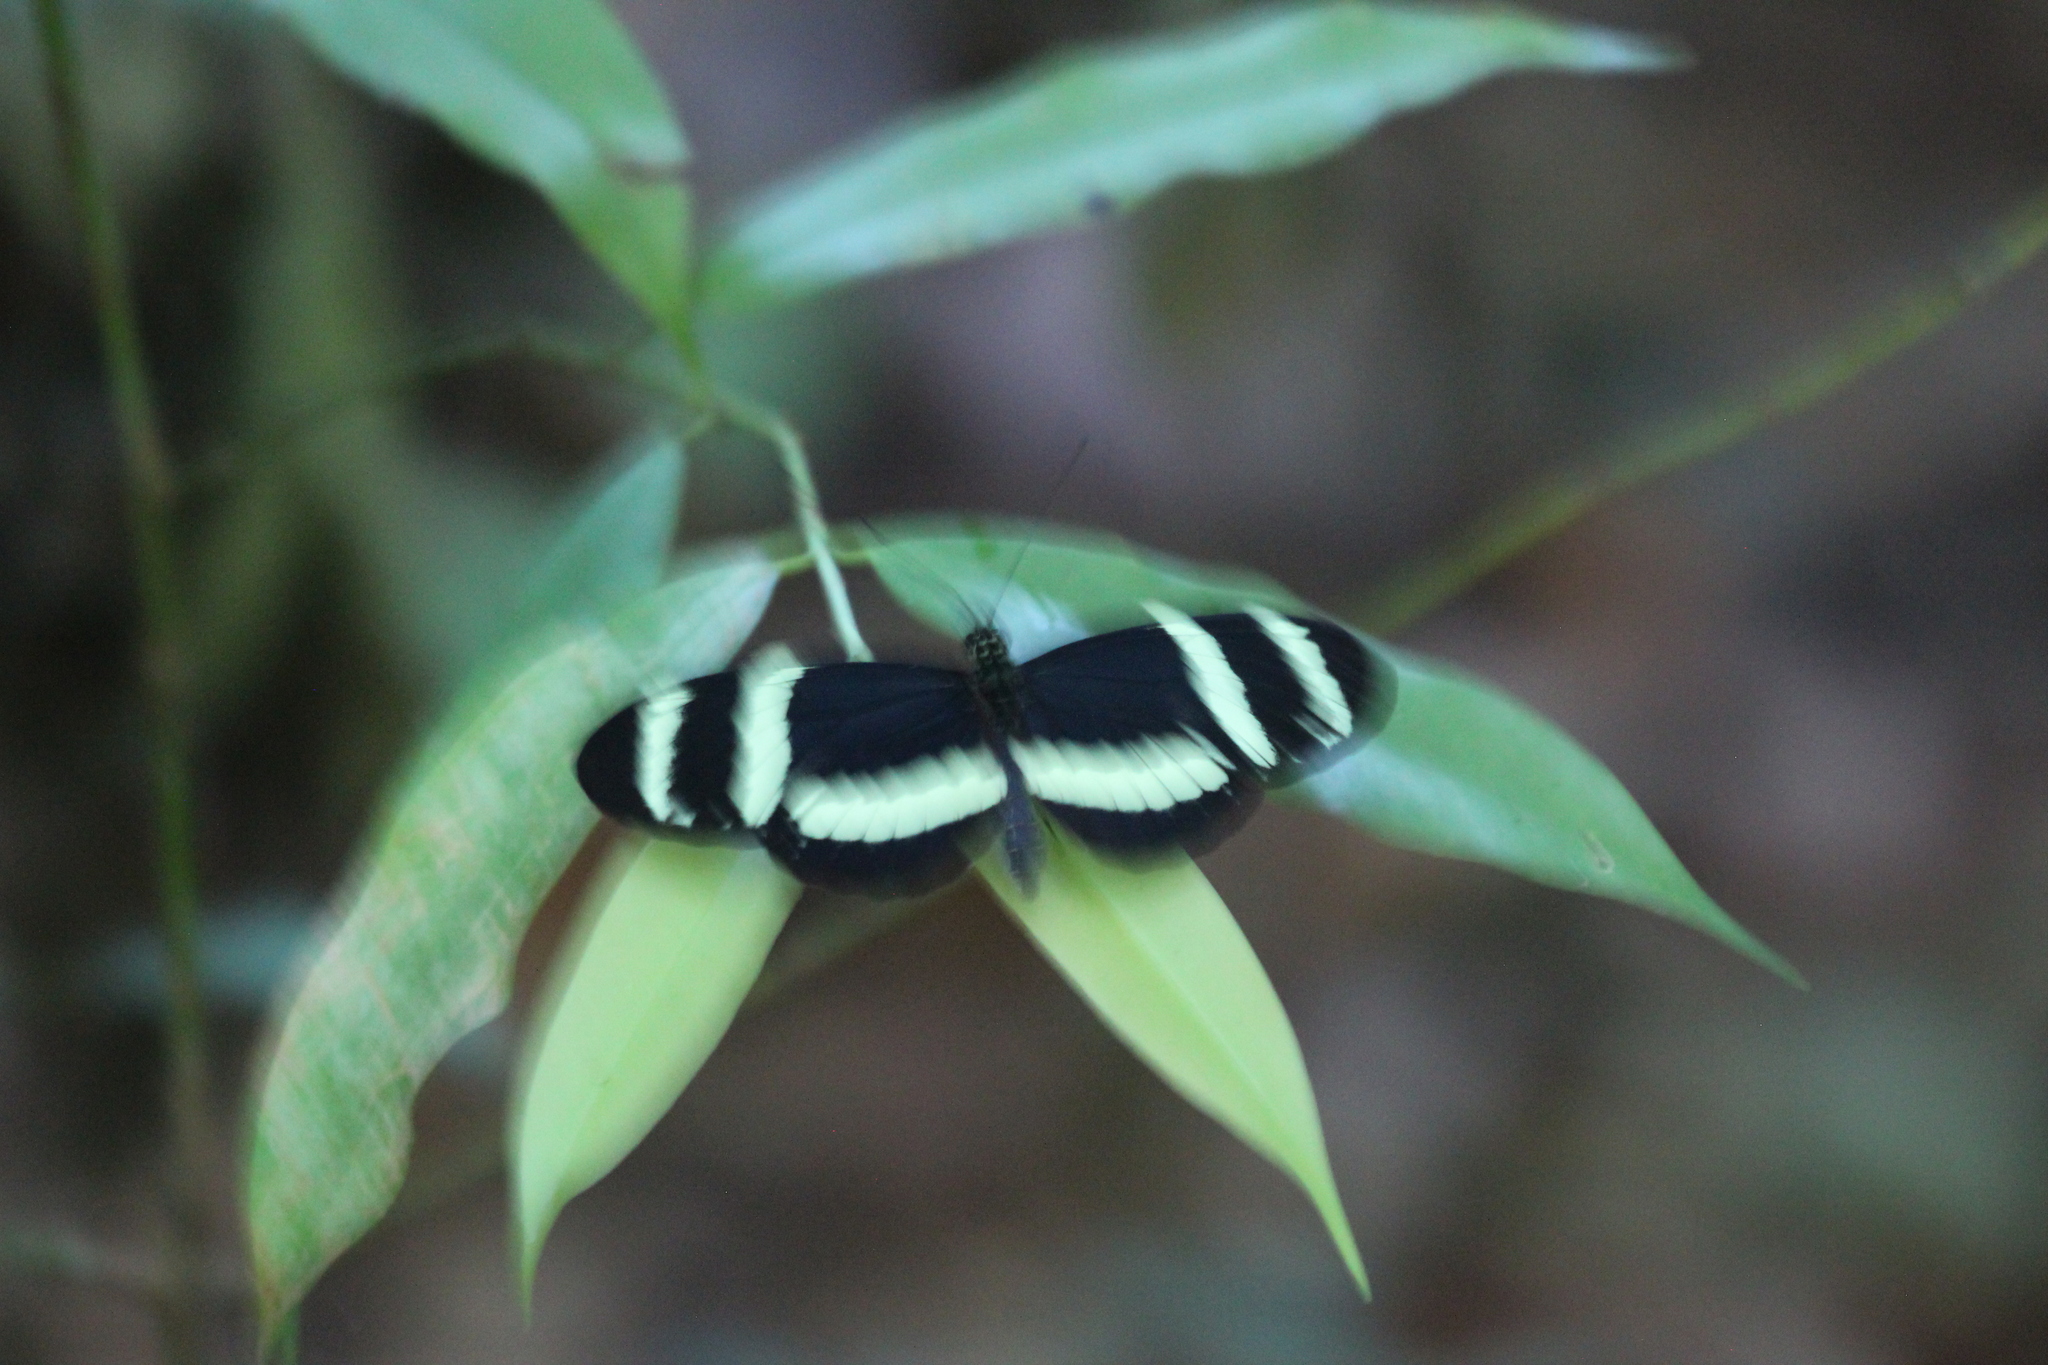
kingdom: Animalia
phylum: Arthropoda
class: Insecta
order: Lepidoptera
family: Nymphalidae
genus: Heliconius
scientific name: Heliconius pachinus
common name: Pachinus longwing
